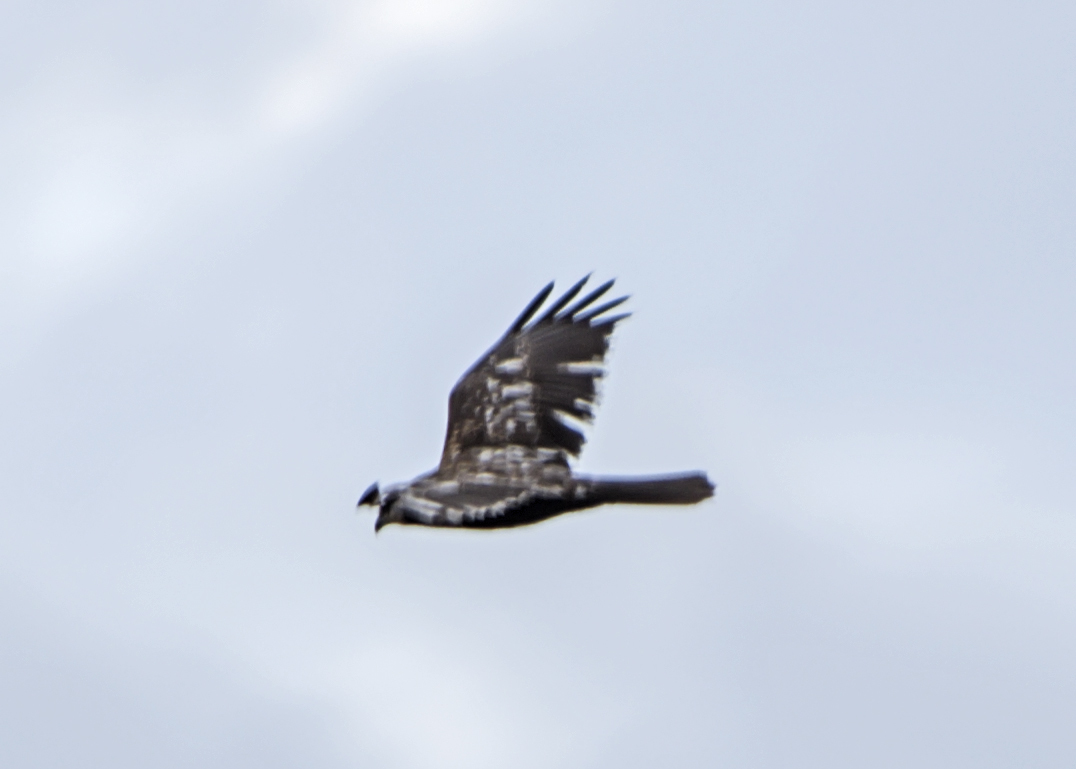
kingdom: Animalia
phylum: Chordata
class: Aves
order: Accipitriformes
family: Accipitridae
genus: Circus
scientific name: Circus aeruginosus
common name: Western marsh harrier
